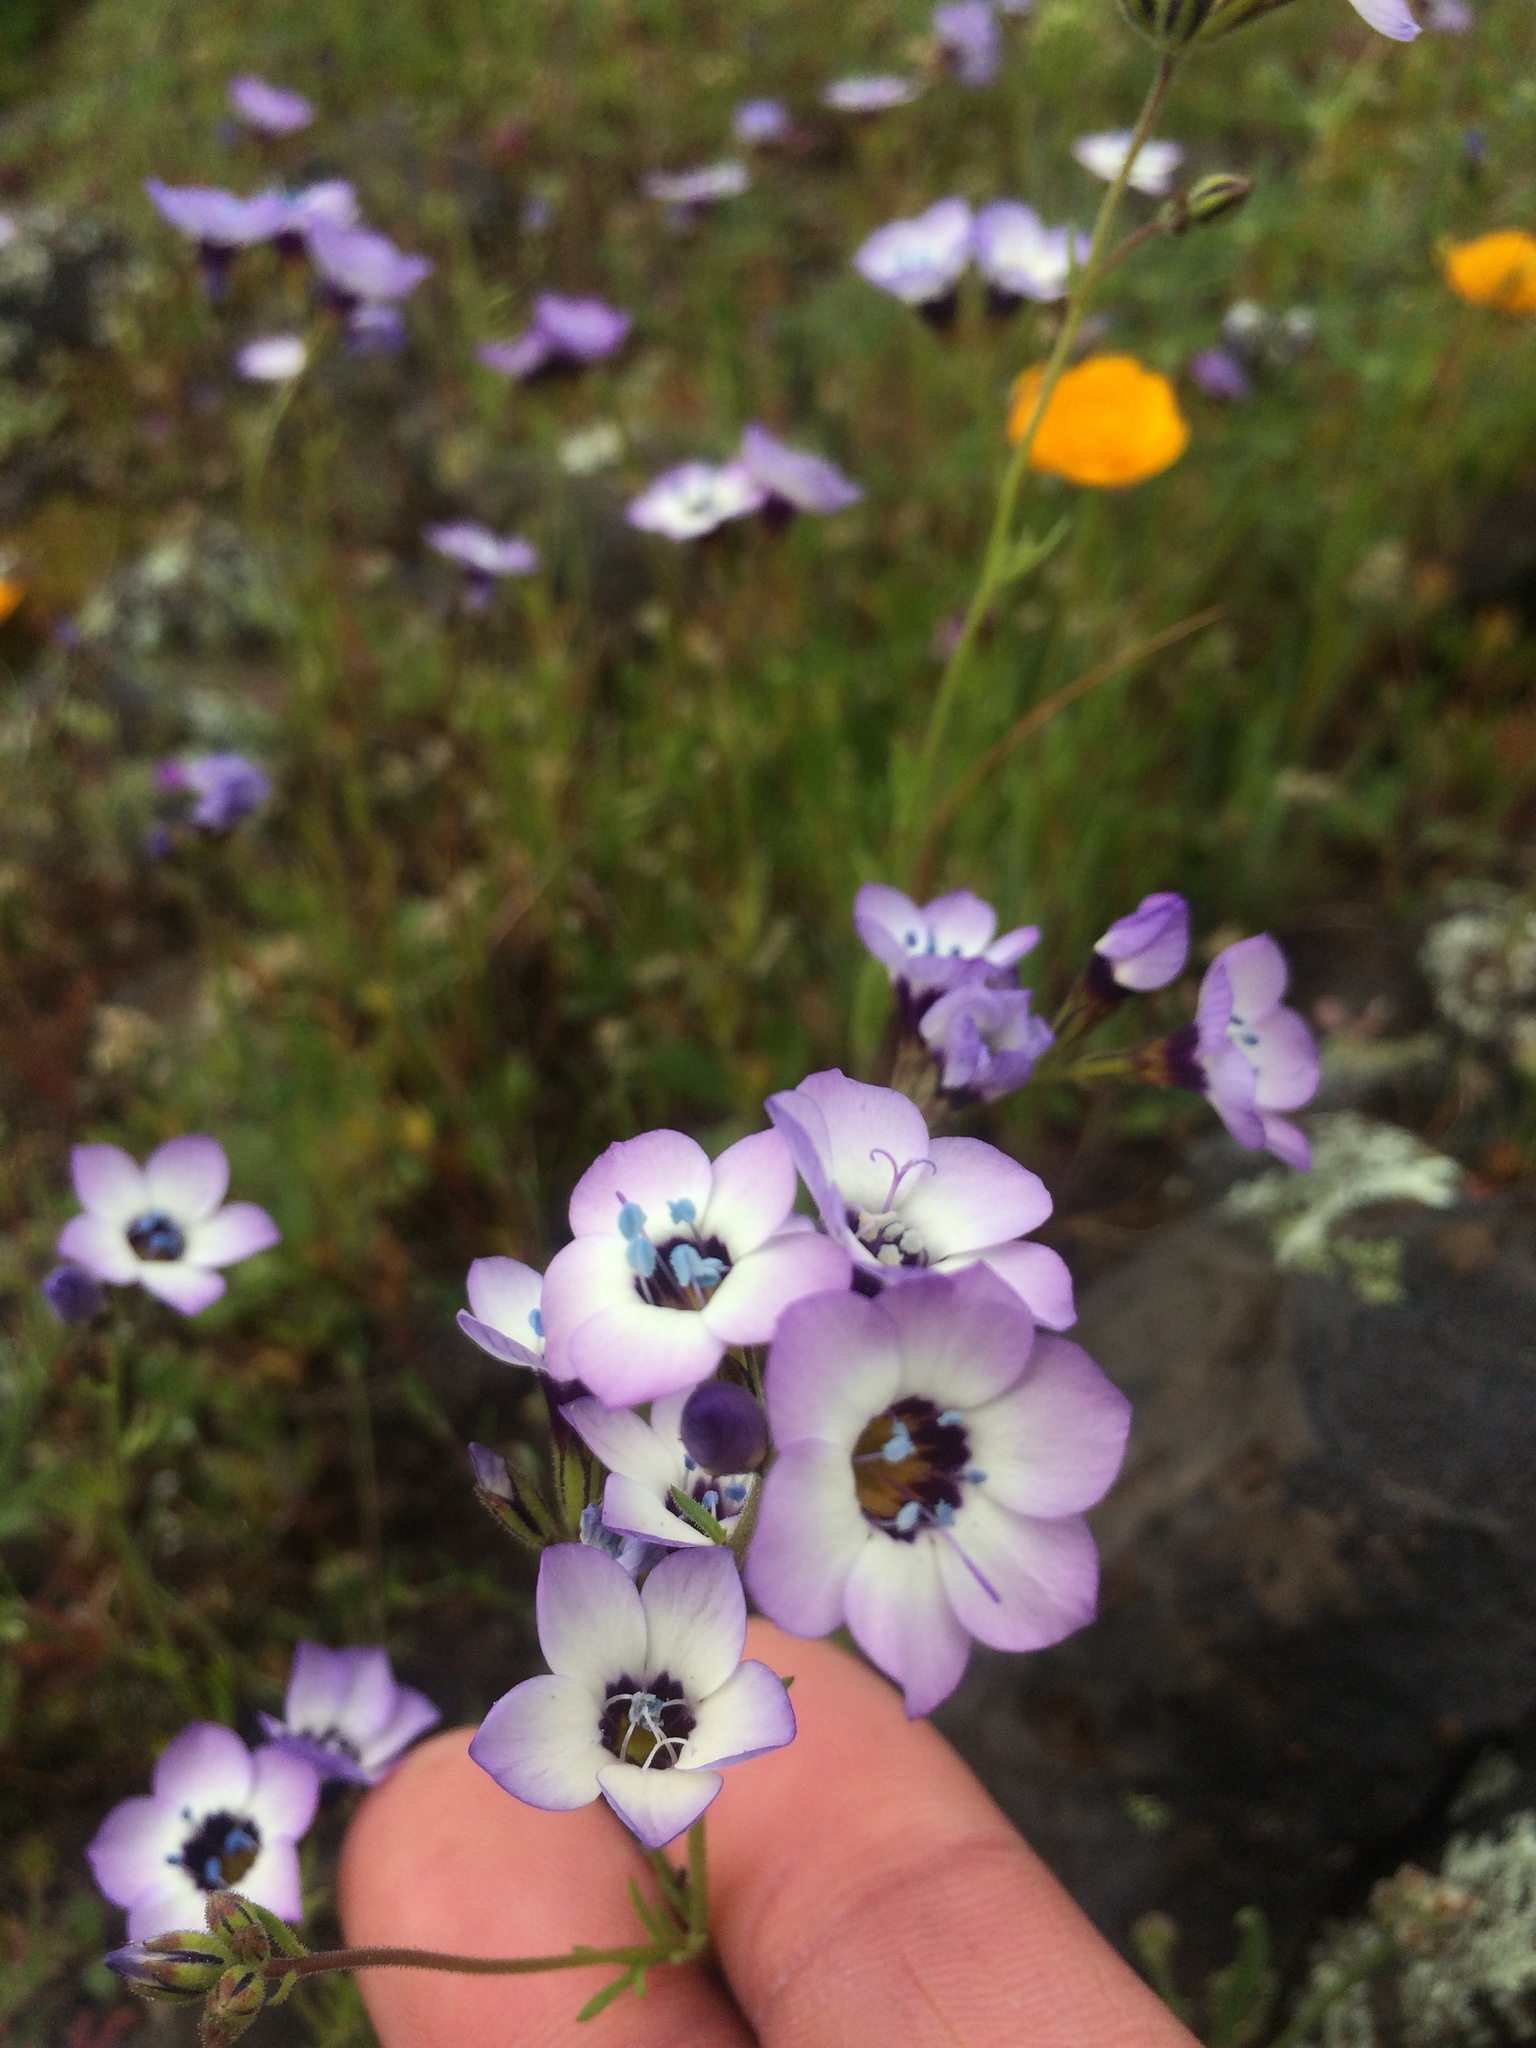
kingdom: Plantae
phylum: Tracheophyta
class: Magnoliopsida
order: Ericales
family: Polemoniaceae
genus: Gilia
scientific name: Gilia tricolor
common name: Bird's-eyes
